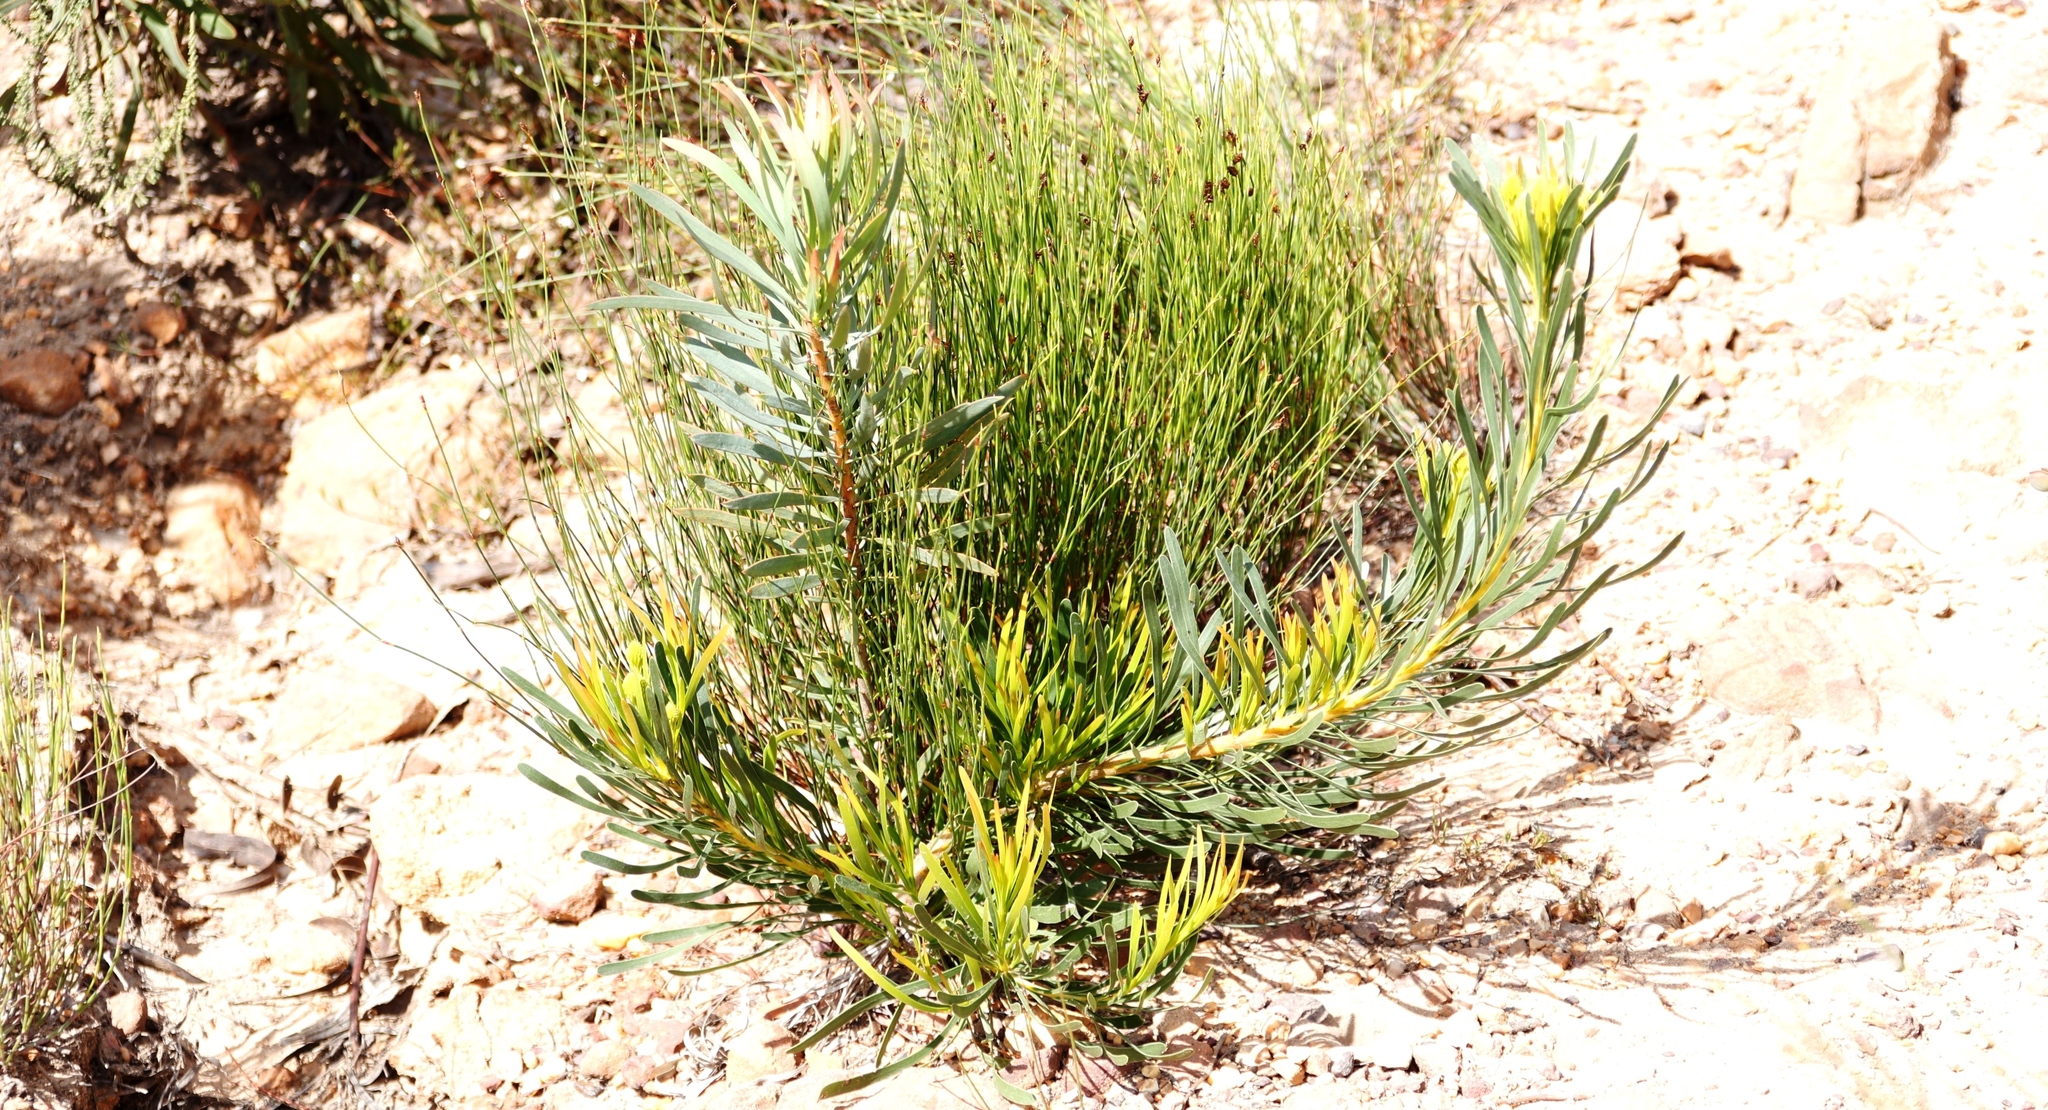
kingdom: Plantae
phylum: Tracheophyta
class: Magnoliopsida
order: Proteales
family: Proteaceae
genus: Aulax
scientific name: Aulax umbellata
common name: Broad-leaf featherbush
